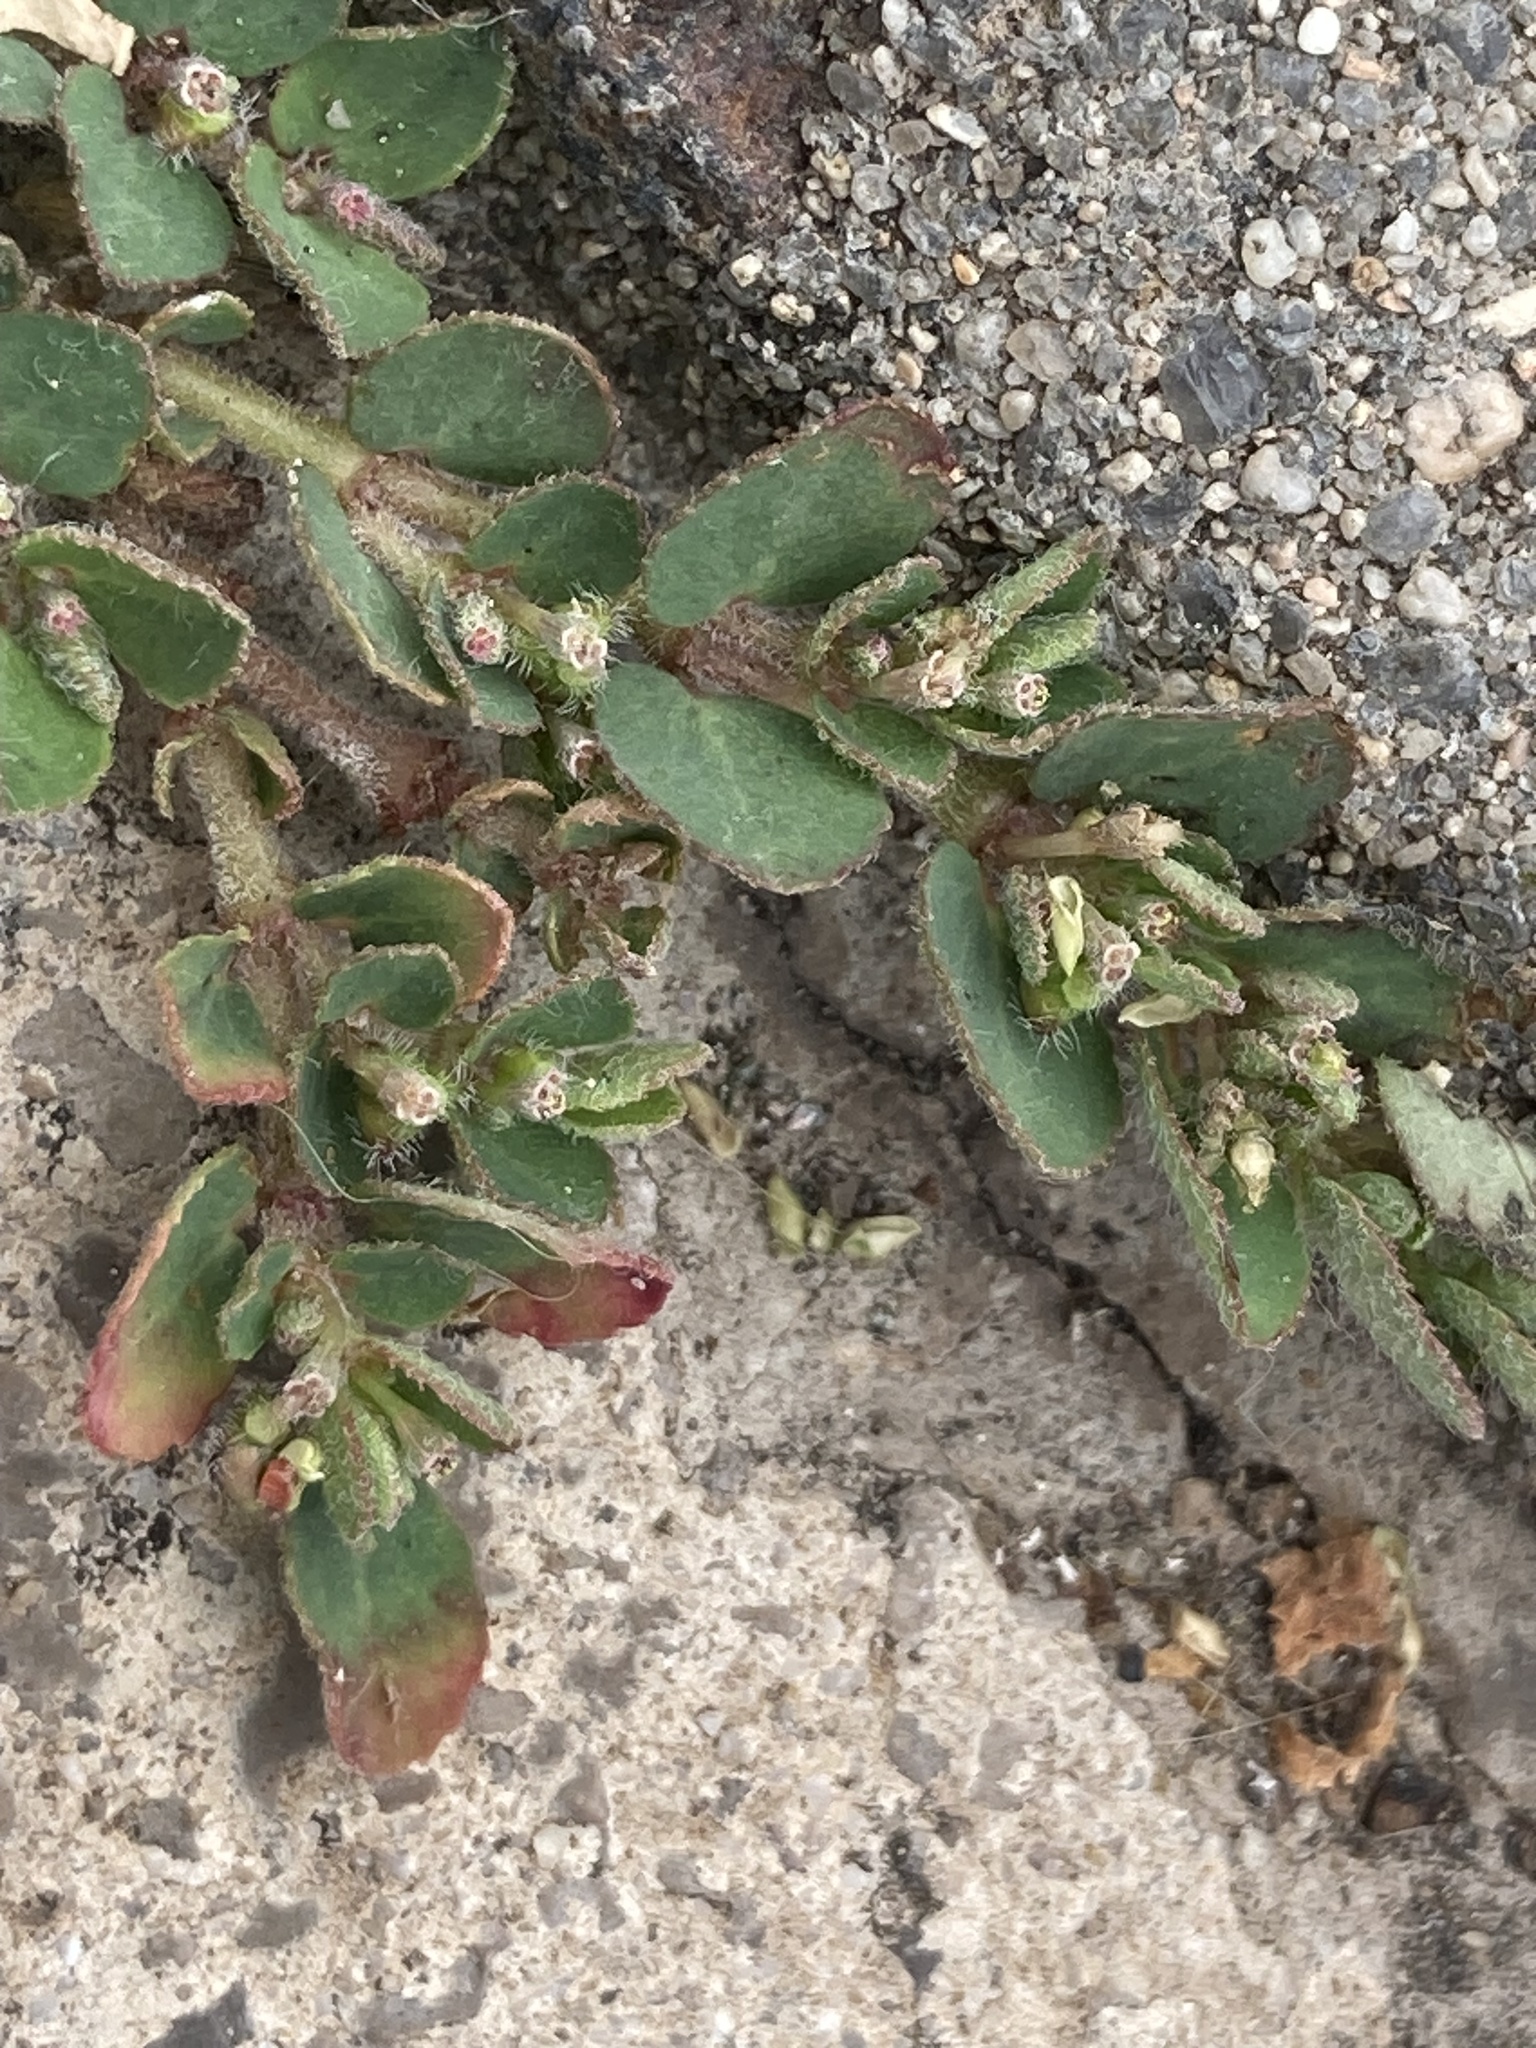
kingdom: Plantae
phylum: Tracheophyta
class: Magnoliopsida
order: Malpighiales
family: Euphorbiaceae
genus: Euphorbia
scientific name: Euphorbia prostrata
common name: Prostrate sandmat
